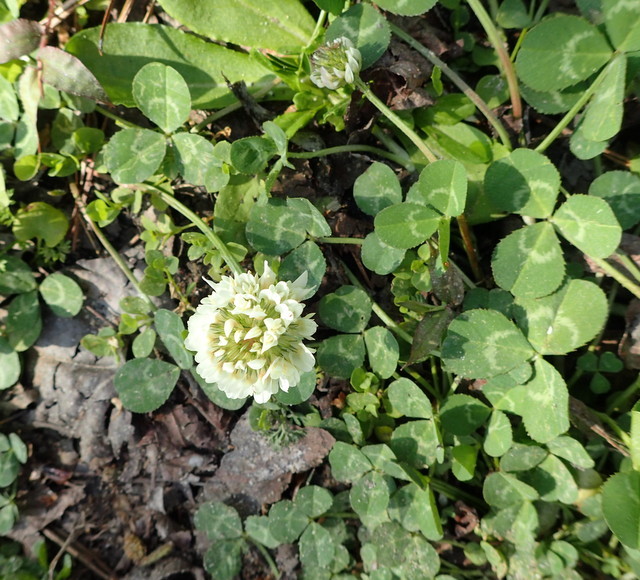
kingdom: Plantae
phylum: Tracheophyta
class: Magnoliopsida
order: Fabales
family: Fabaceae
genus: Trifolium
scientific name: Trifolium repens
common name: White clover
